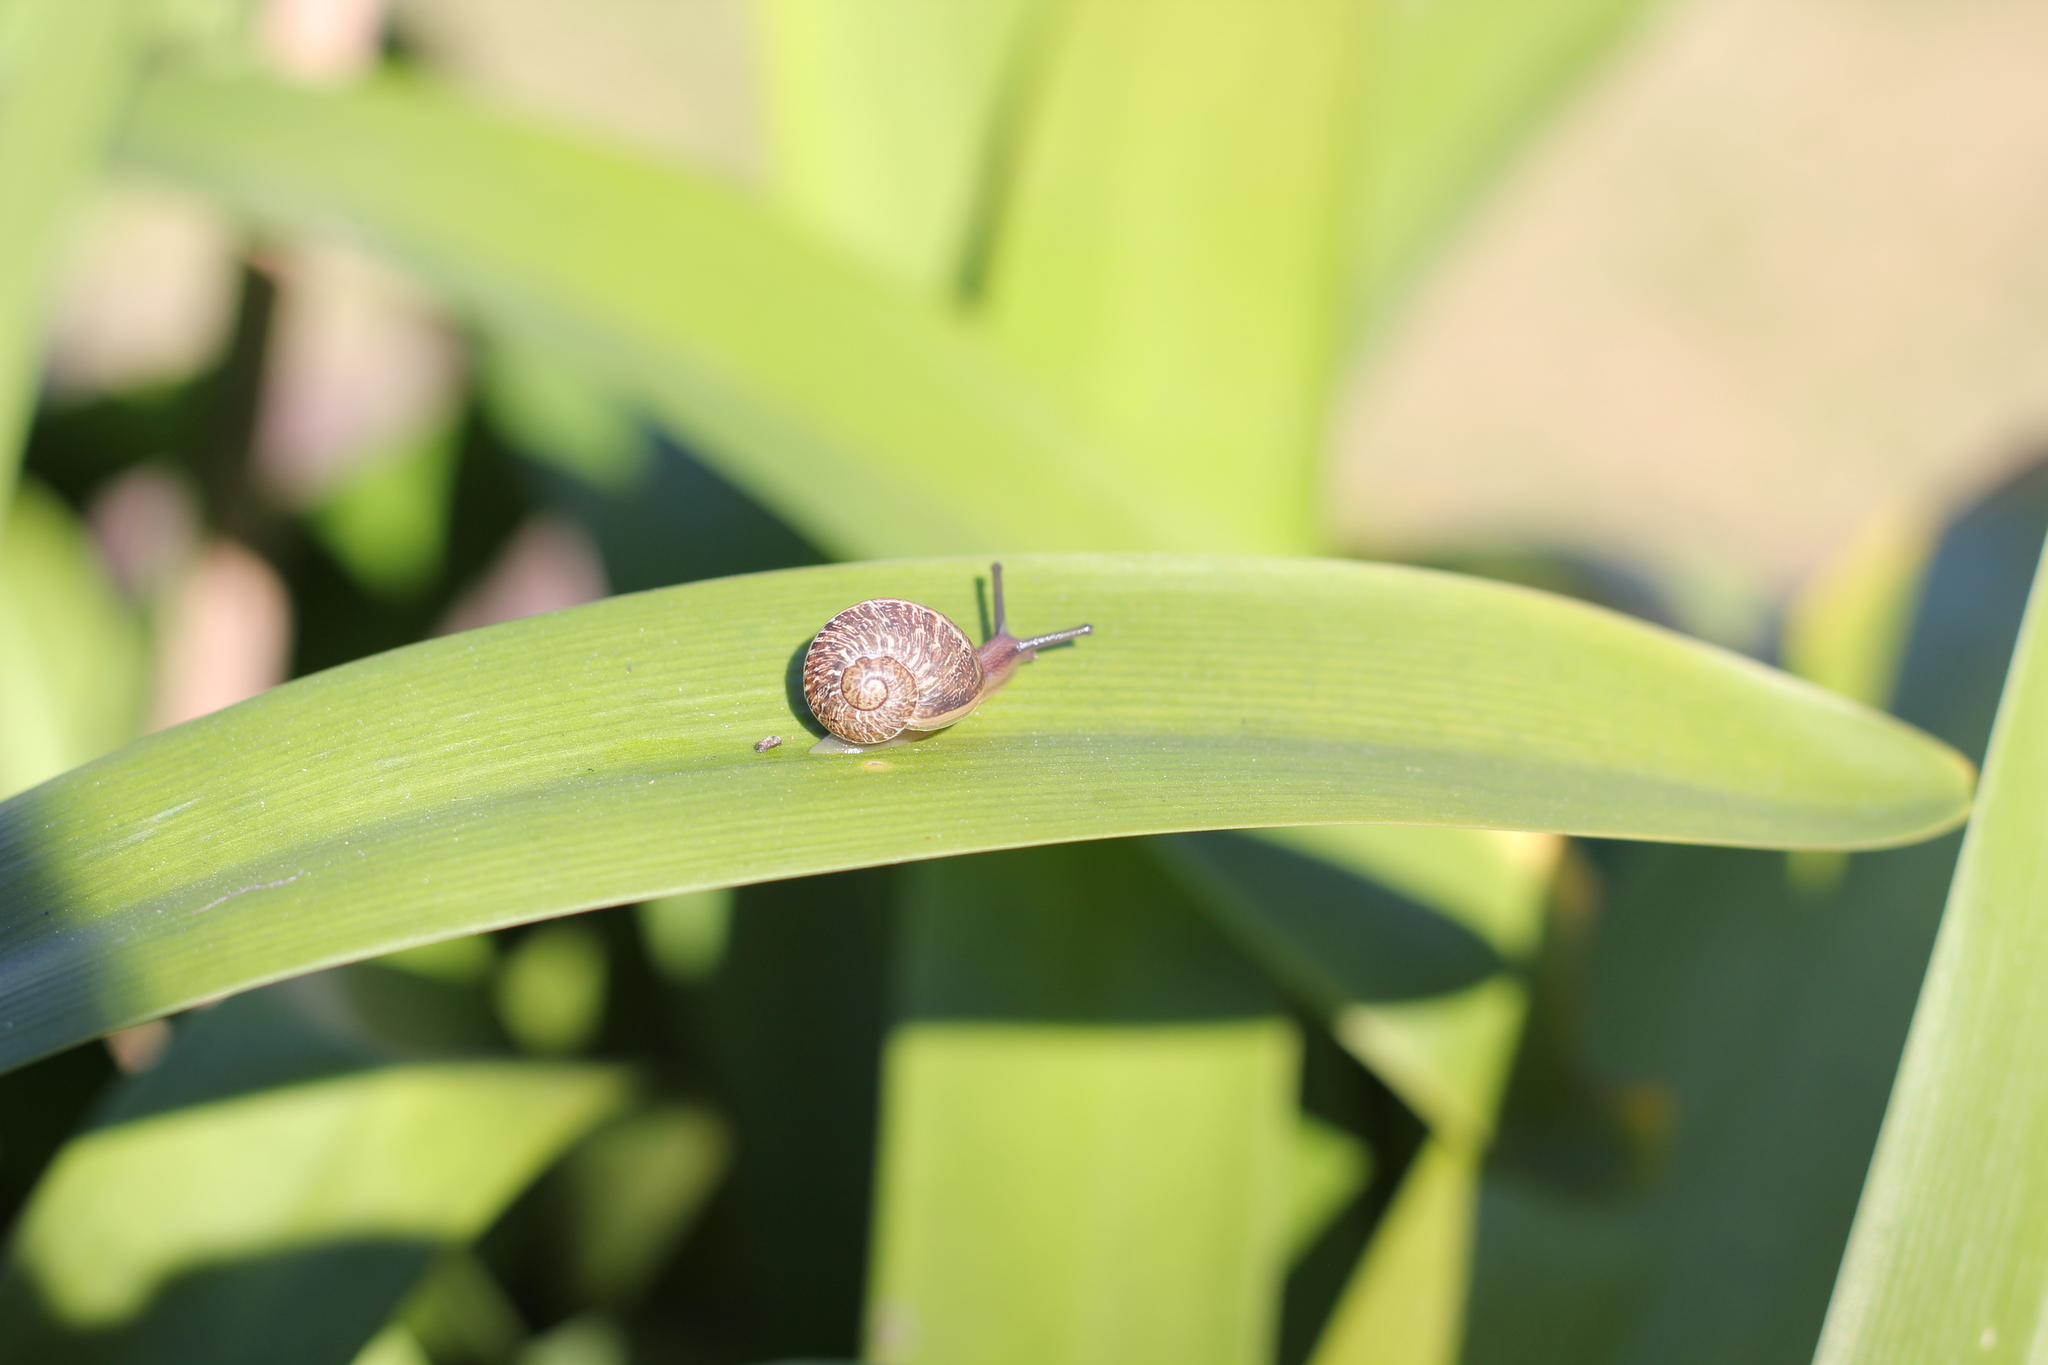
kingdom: Animalia
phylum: Mollusca
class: Gastropoda
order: Stylommatophora
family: Helicidae
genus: Cornu
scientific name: Cornu aspersum
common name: Brown garden snail
